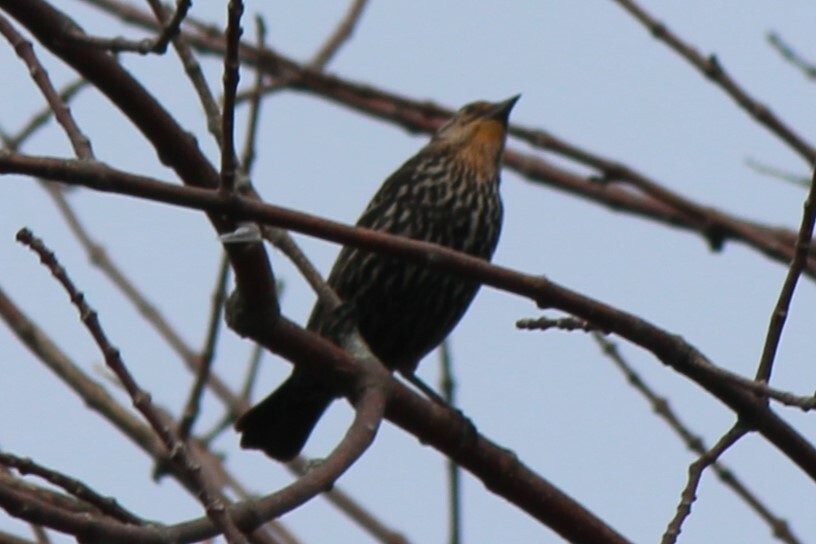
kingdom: Animalia
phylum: Chordata
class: Aves
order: Passeriformes
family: Icteridae
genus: Agelaius
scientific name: Agelaius phoeniceus
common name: Red-winged blackbird
